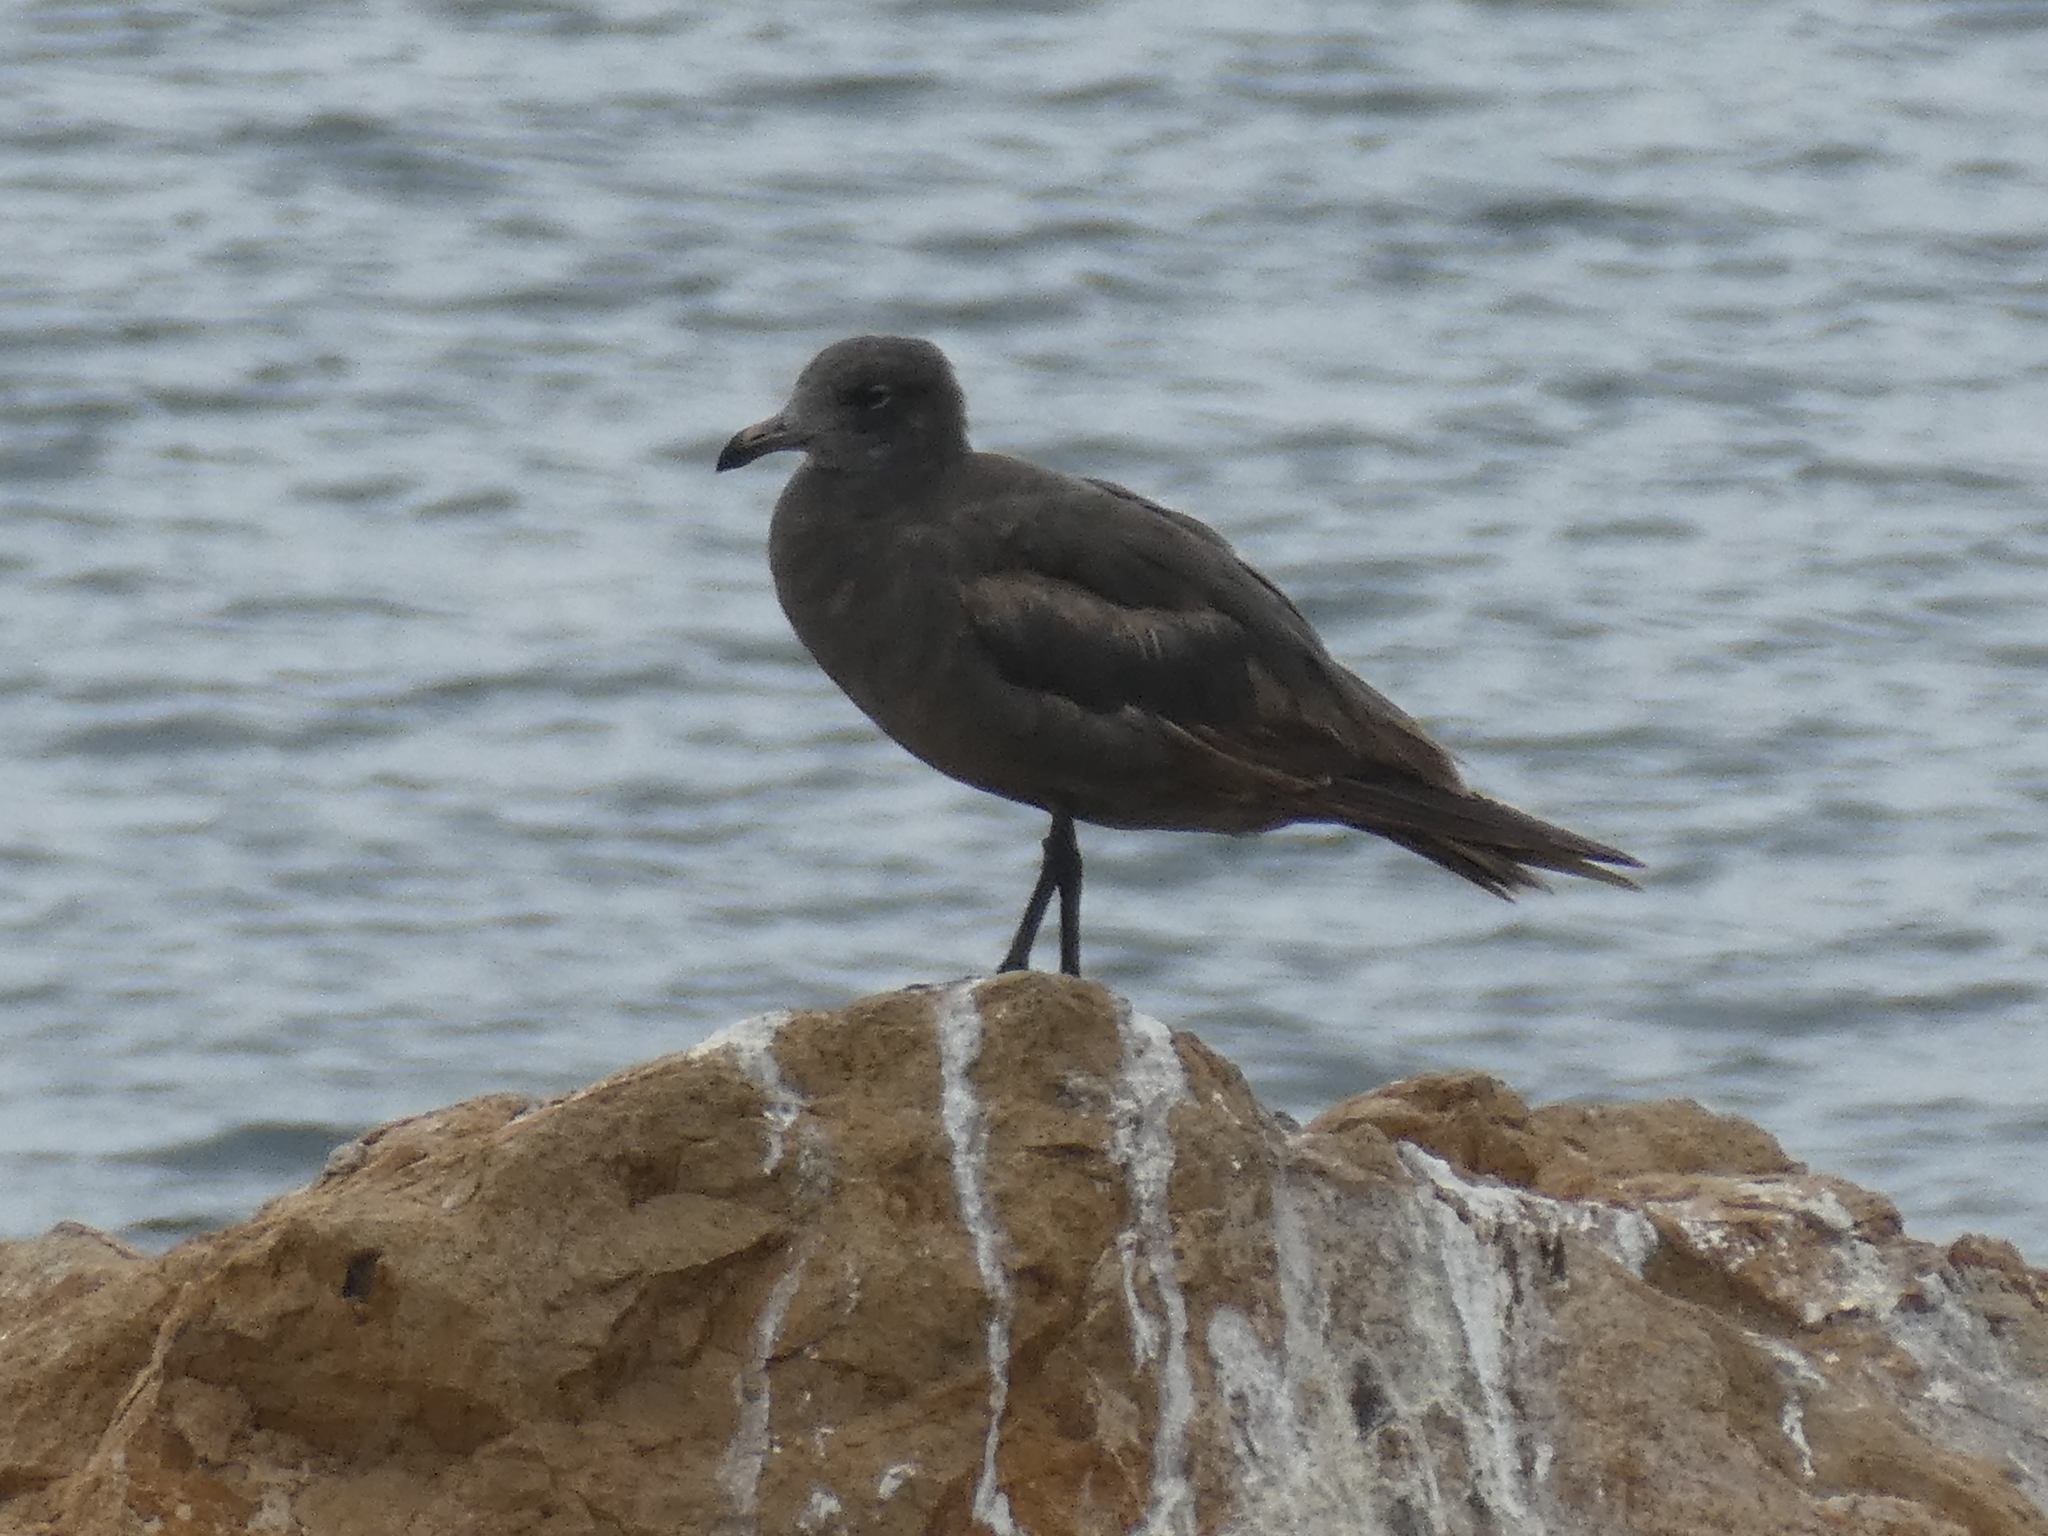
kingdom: Animalia
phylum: Chordata
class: Aves
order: Charadriiformes
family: Laridae
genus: Larus
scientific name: Larus heermanni
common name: Heermann's gull
